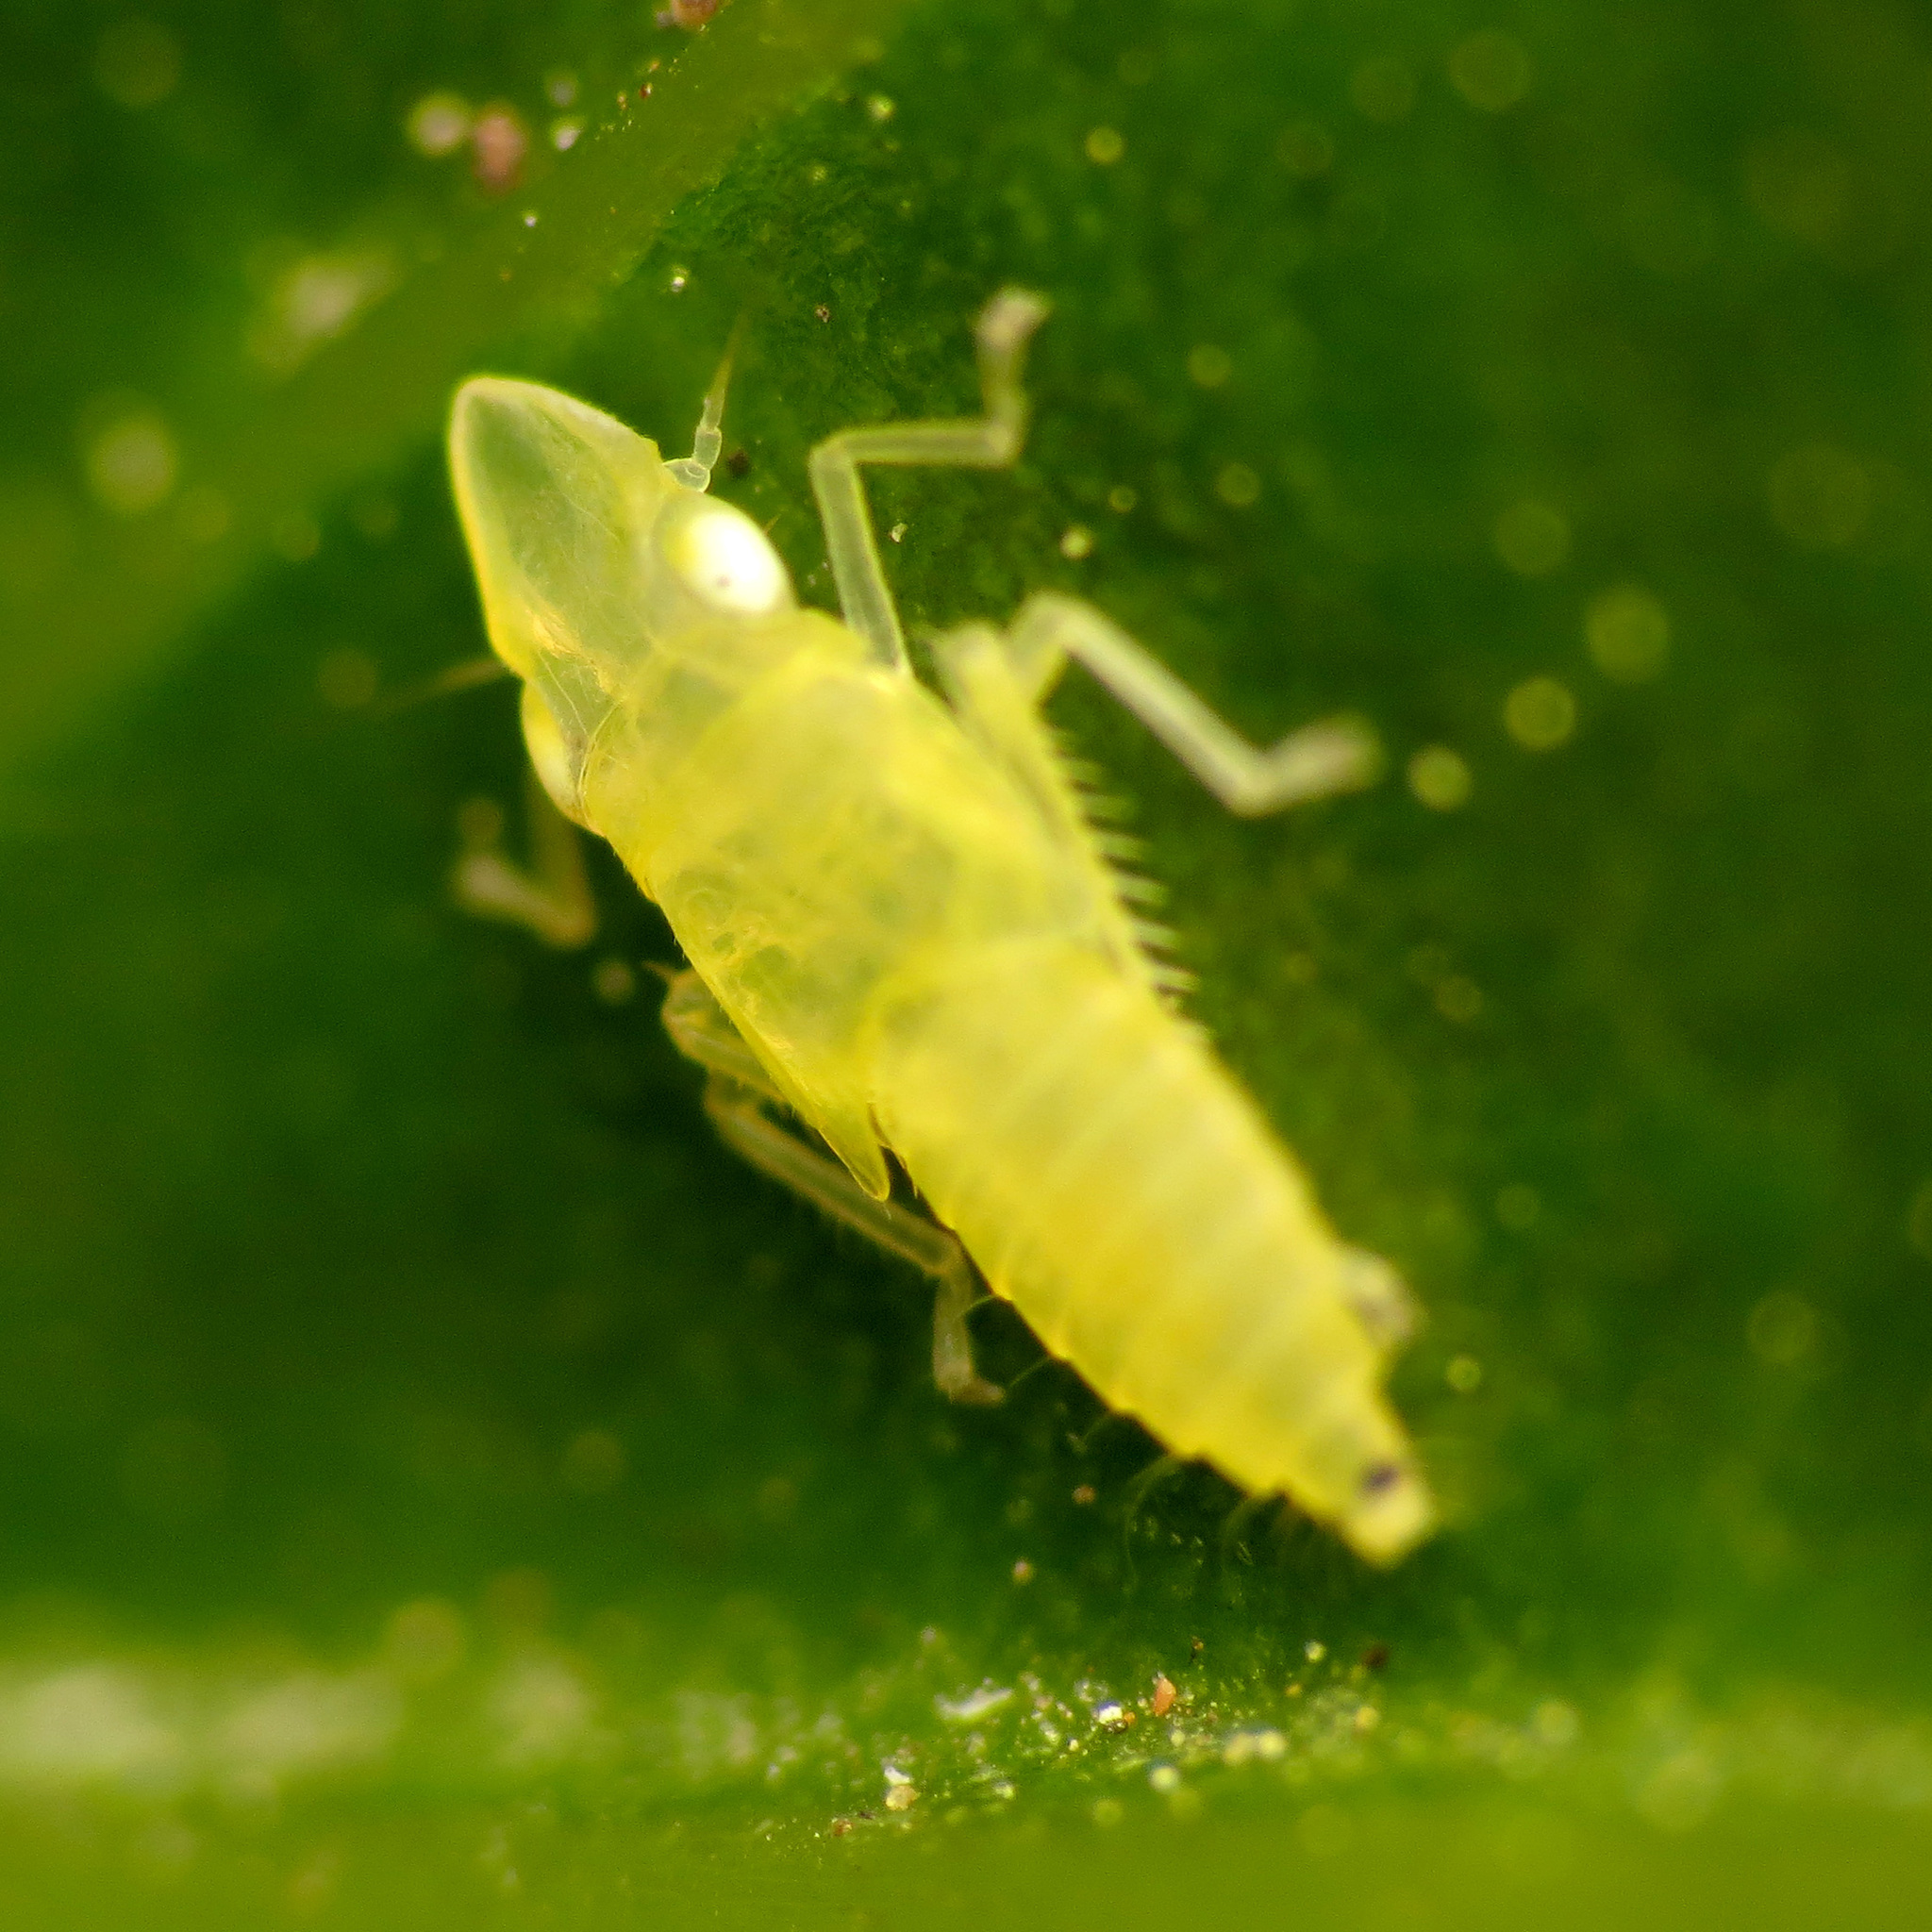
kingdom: Animalia
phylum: Arthropoda
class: Insecta
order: Hemiptera
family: Cicadellidae
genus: Sophonia
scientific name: Sophonia orientalis
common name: Two-spotted leafhopper
